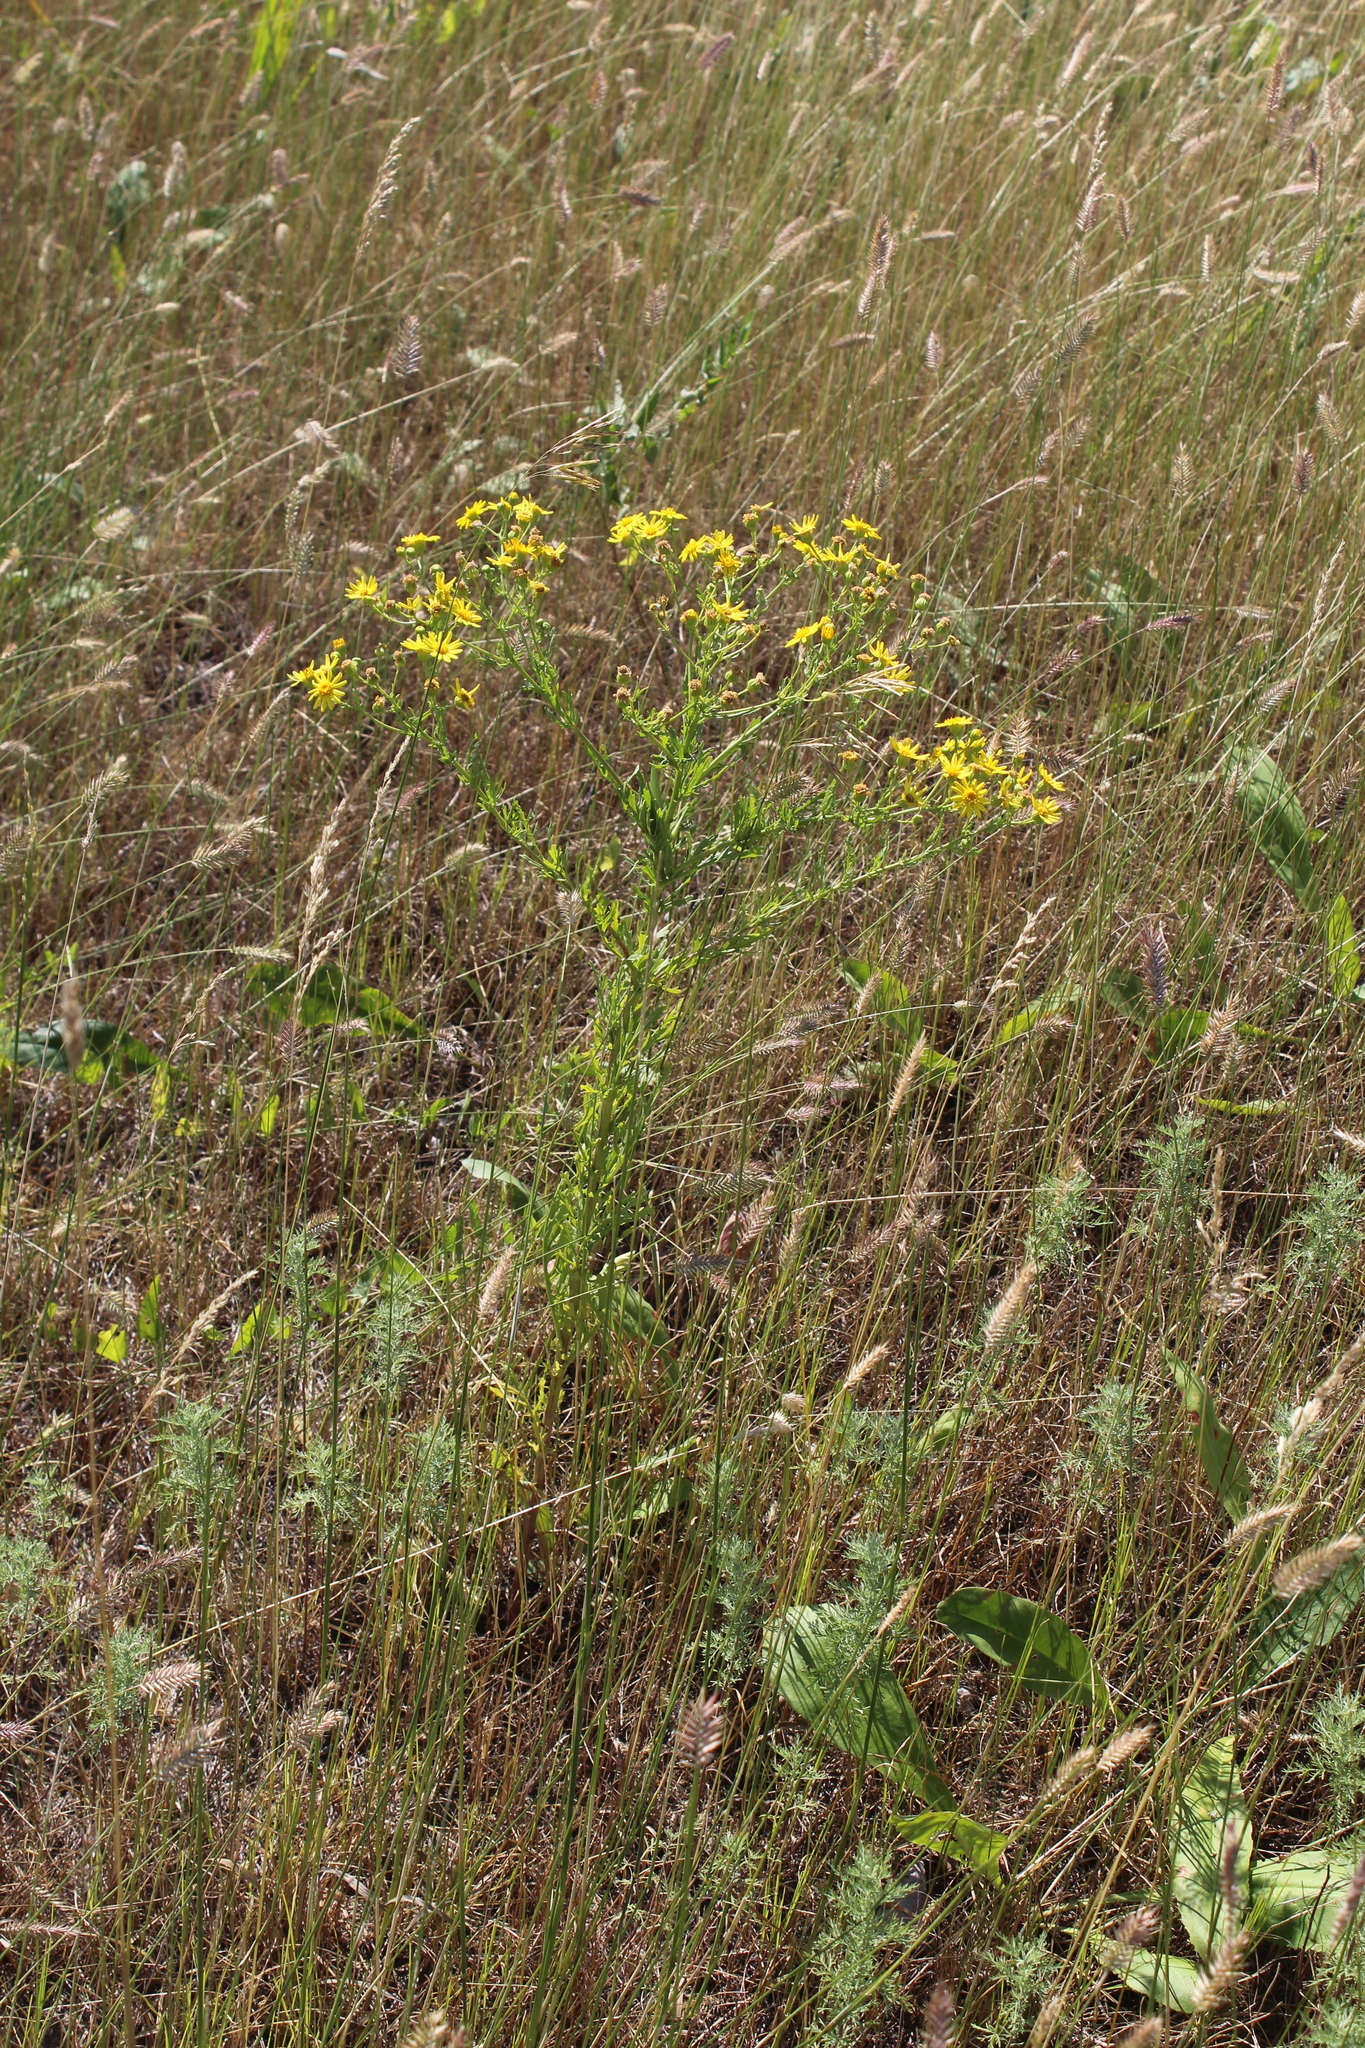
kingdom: Plantae
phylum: Tracheophyta
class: Magnoliopsida
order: Asterales
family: Asteraceae
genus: Jacobaea
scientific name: Jacobaea andrzejowskyi
